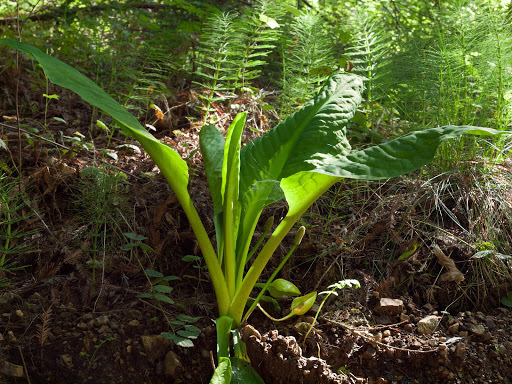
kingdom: Plantae
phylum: Tracheophyta
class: Liliopsida
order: Alismatales
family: Araceae
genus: Lysichiton
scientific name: Lysichiton americanus
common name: American skunk cabbage
